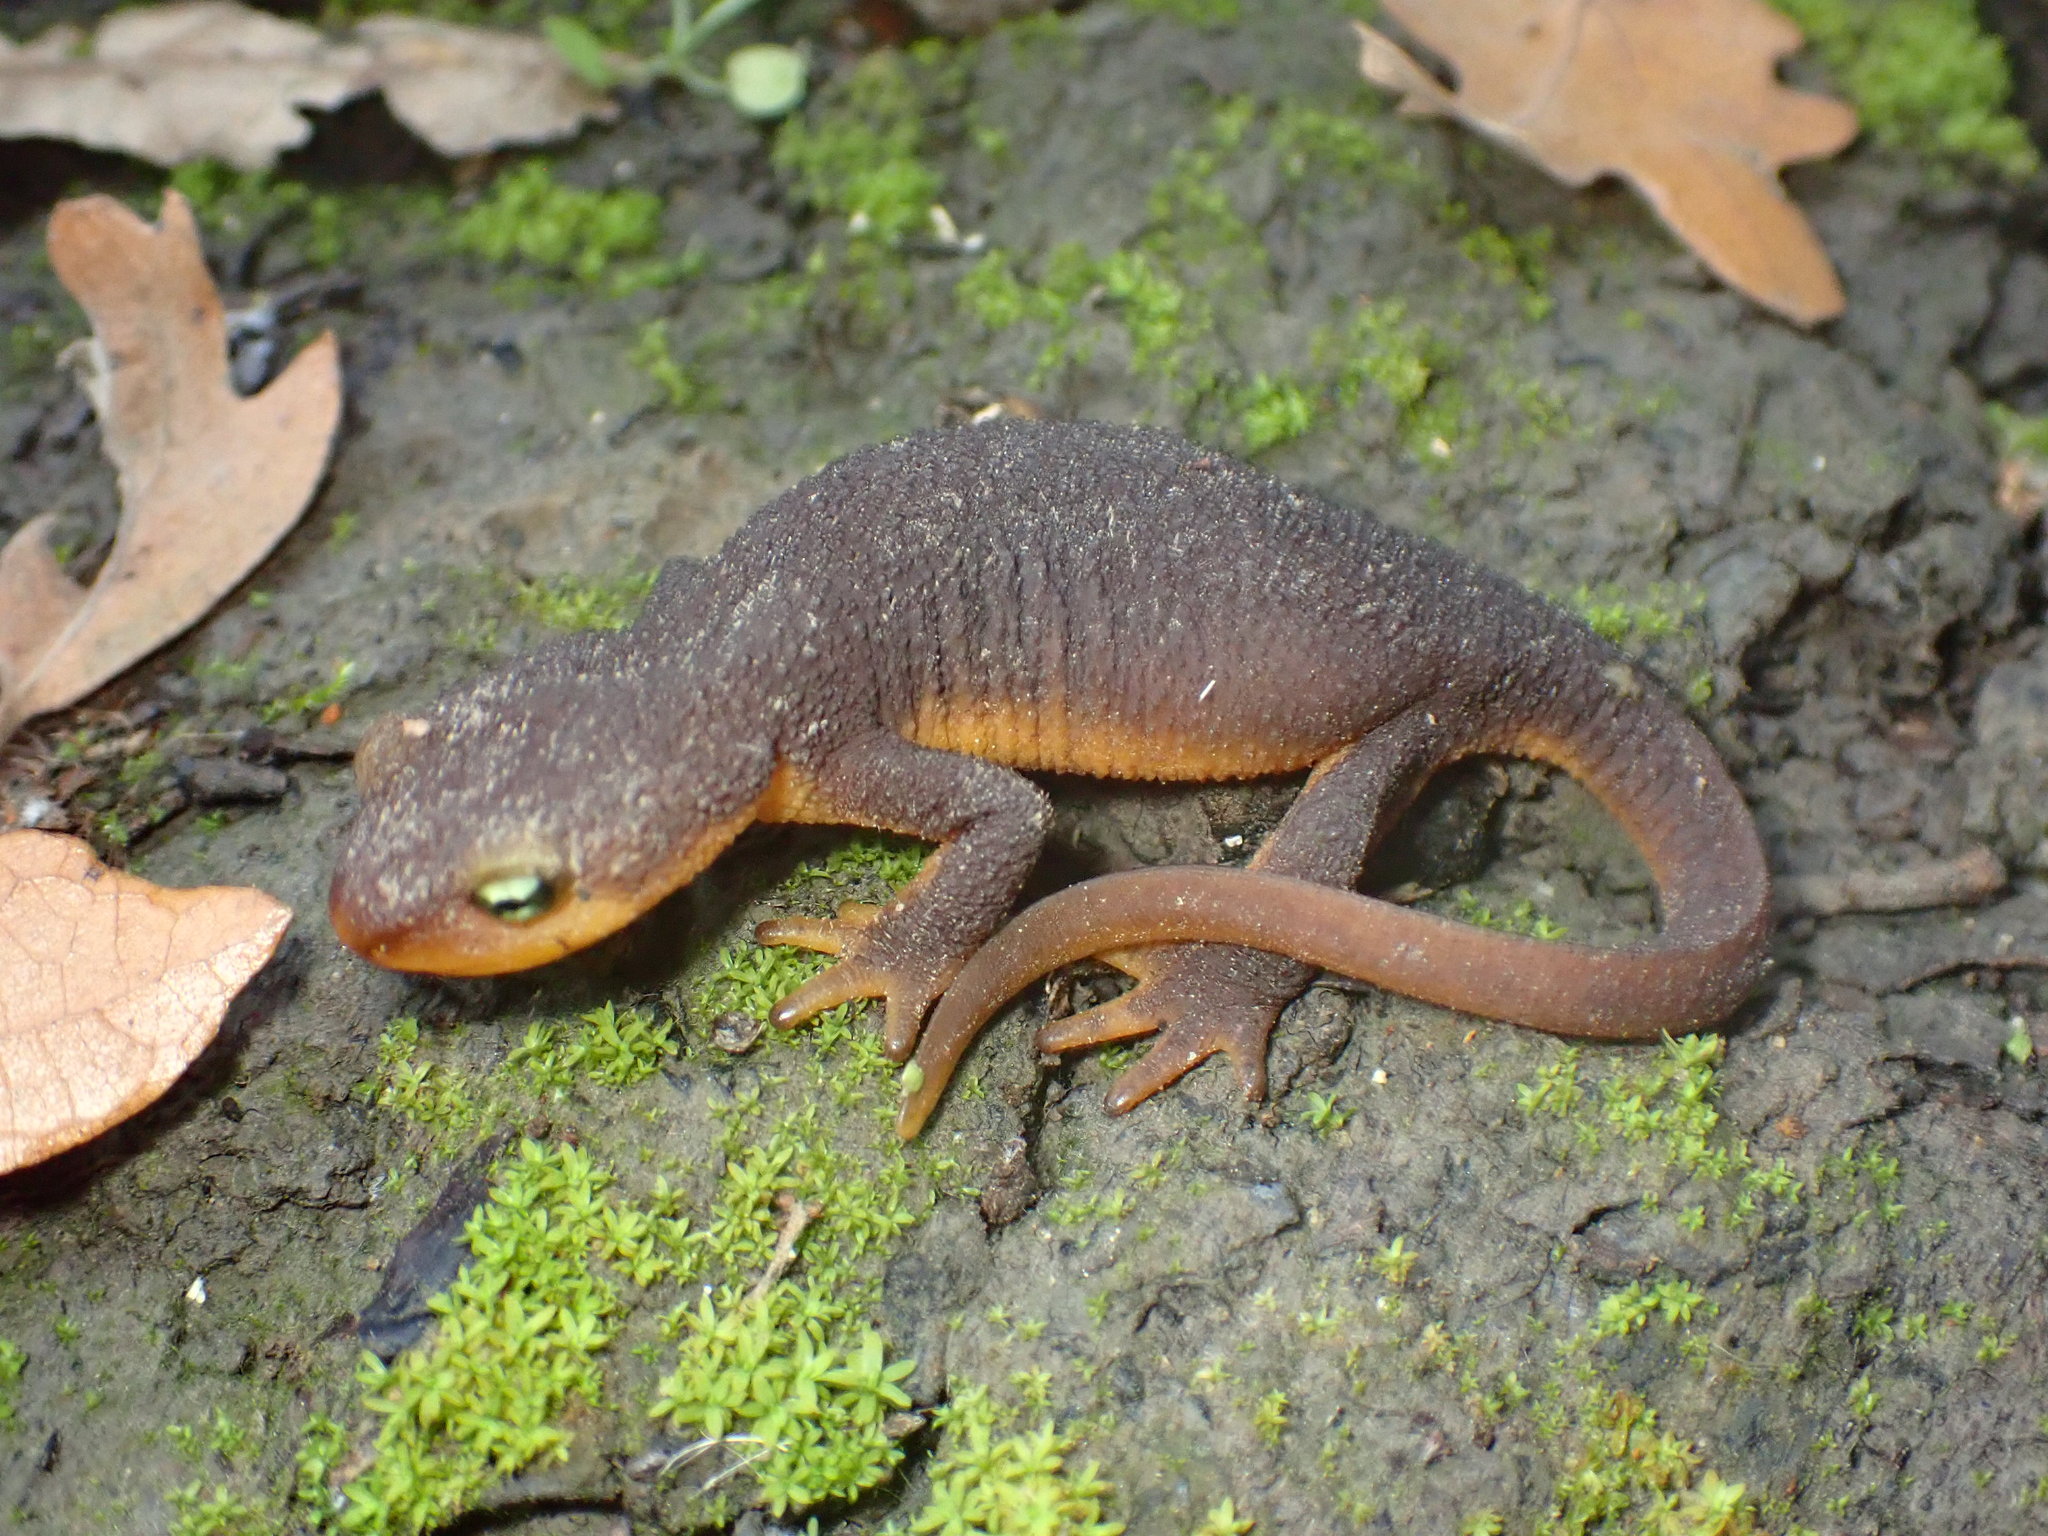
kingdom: Animalia
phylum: Chordata
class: Amphibia
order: Caudata
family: Salamandridae
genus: Taricha
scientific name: Taricha torosa
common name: California newt
